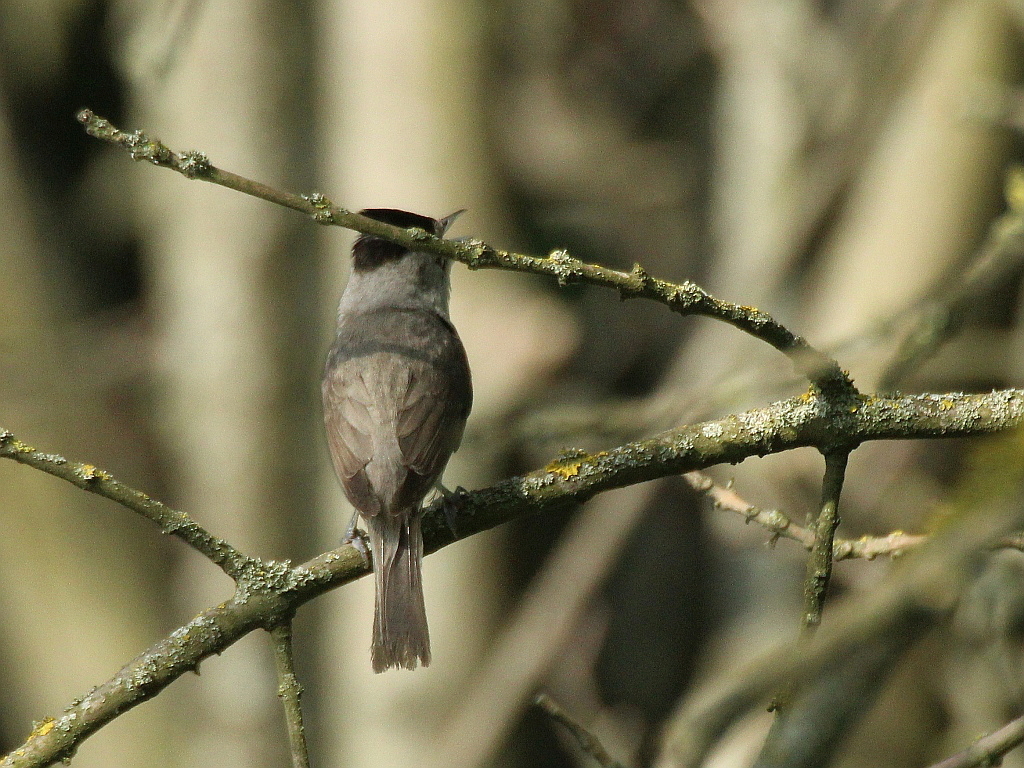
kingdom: Animalia
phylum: Chordata
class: Aves
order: Passeriformes
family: Sylviidae
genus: Sylvia
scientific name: Sylvia atricapilla
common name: Eurasian blackcap
